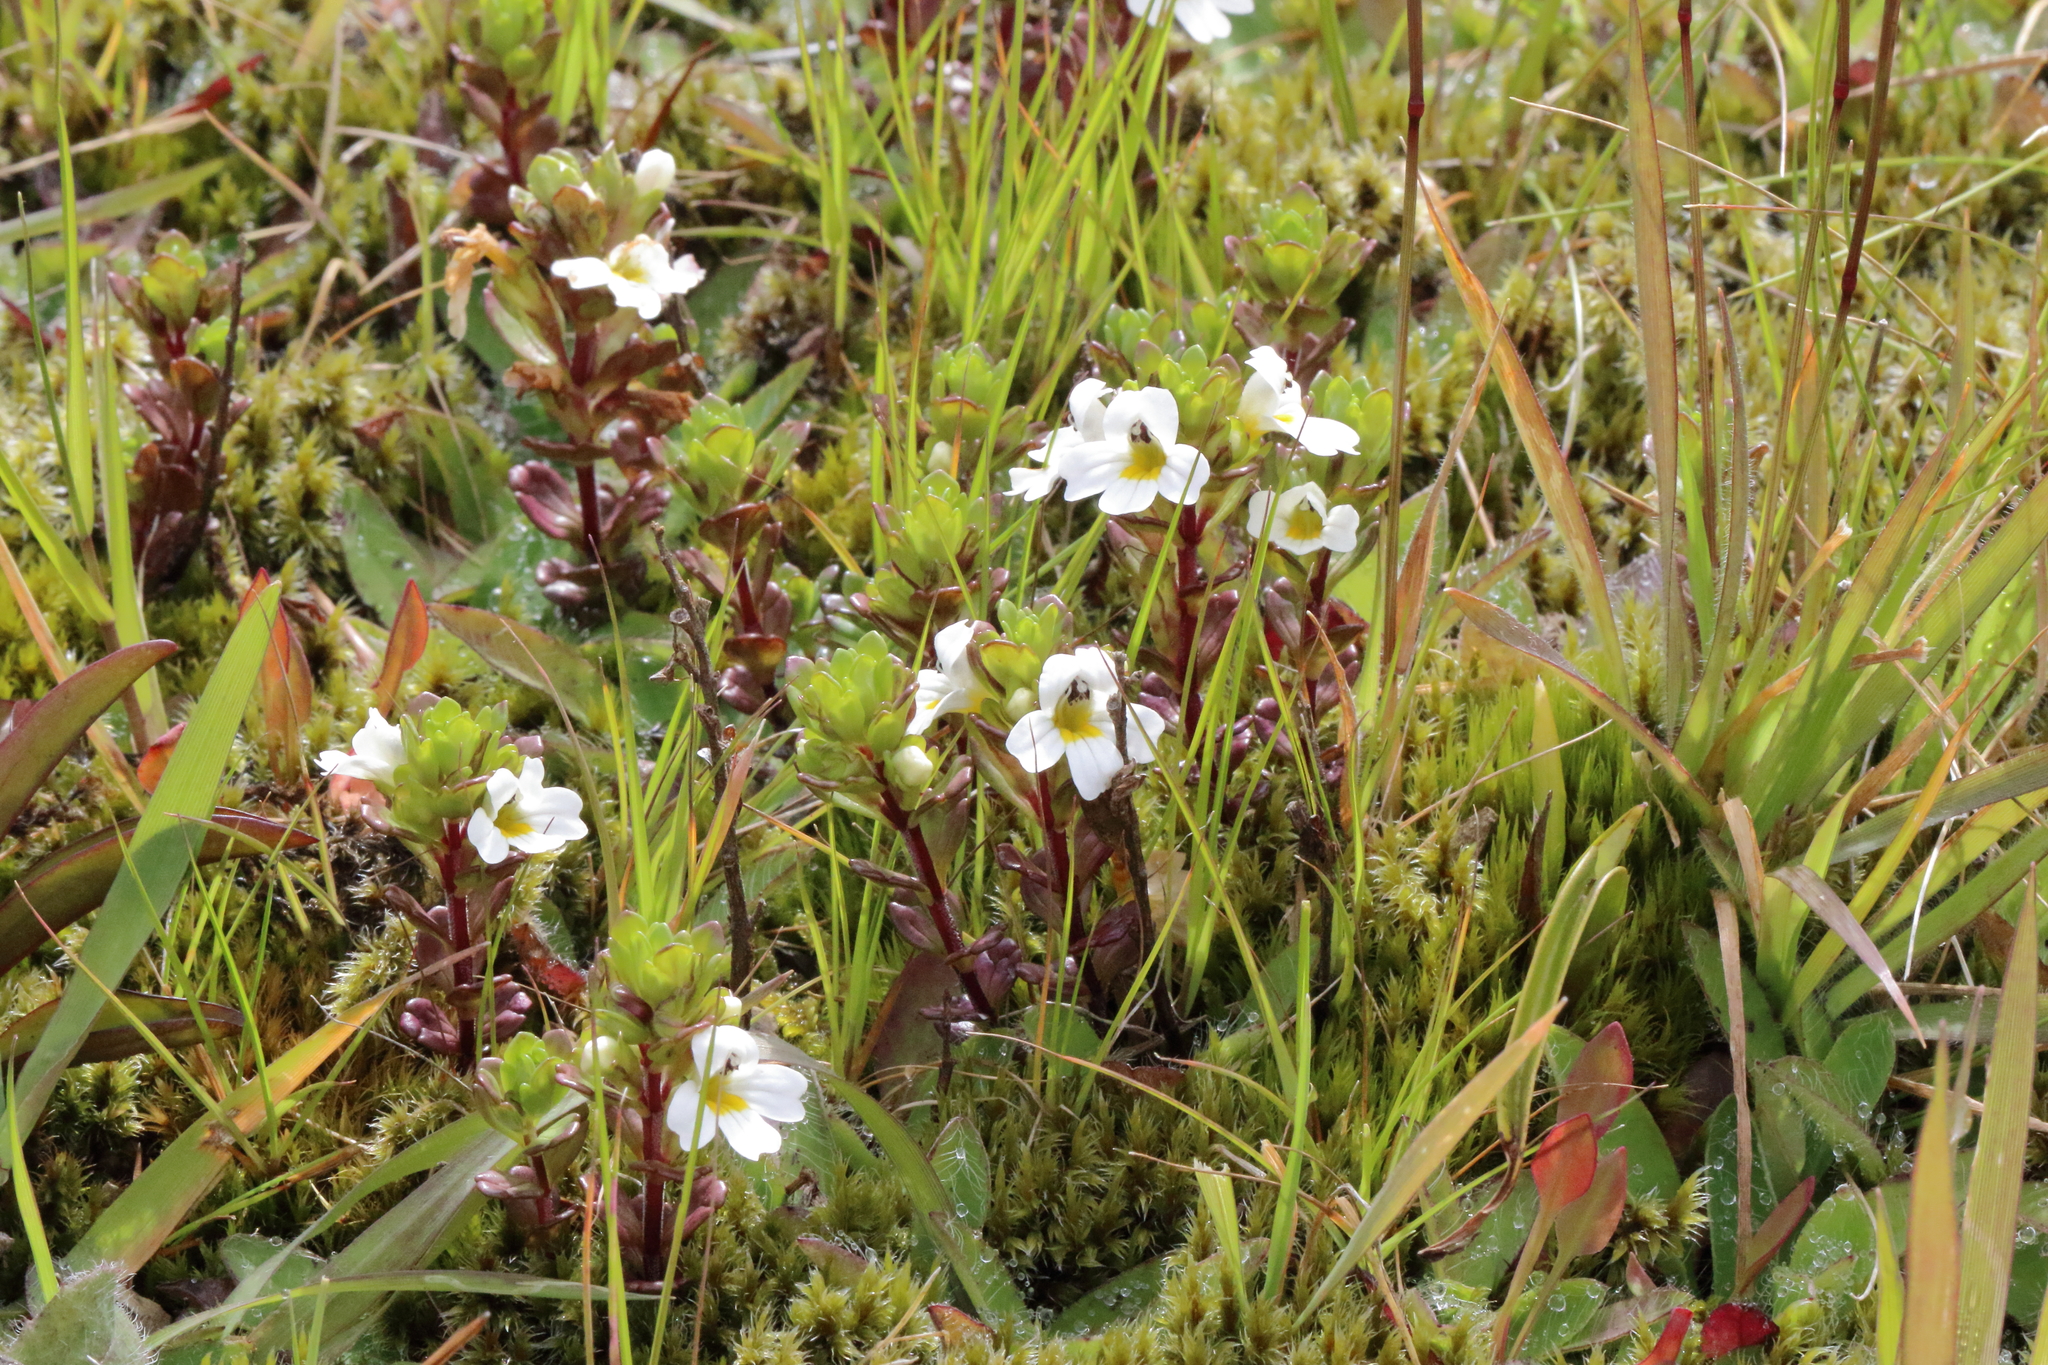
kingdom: Plantae
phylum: Tracheophyta
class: Magnoliopsida
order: Lamiales
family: Orobanchaceae
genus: Euphrasia
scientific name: Euphrasia laingii
